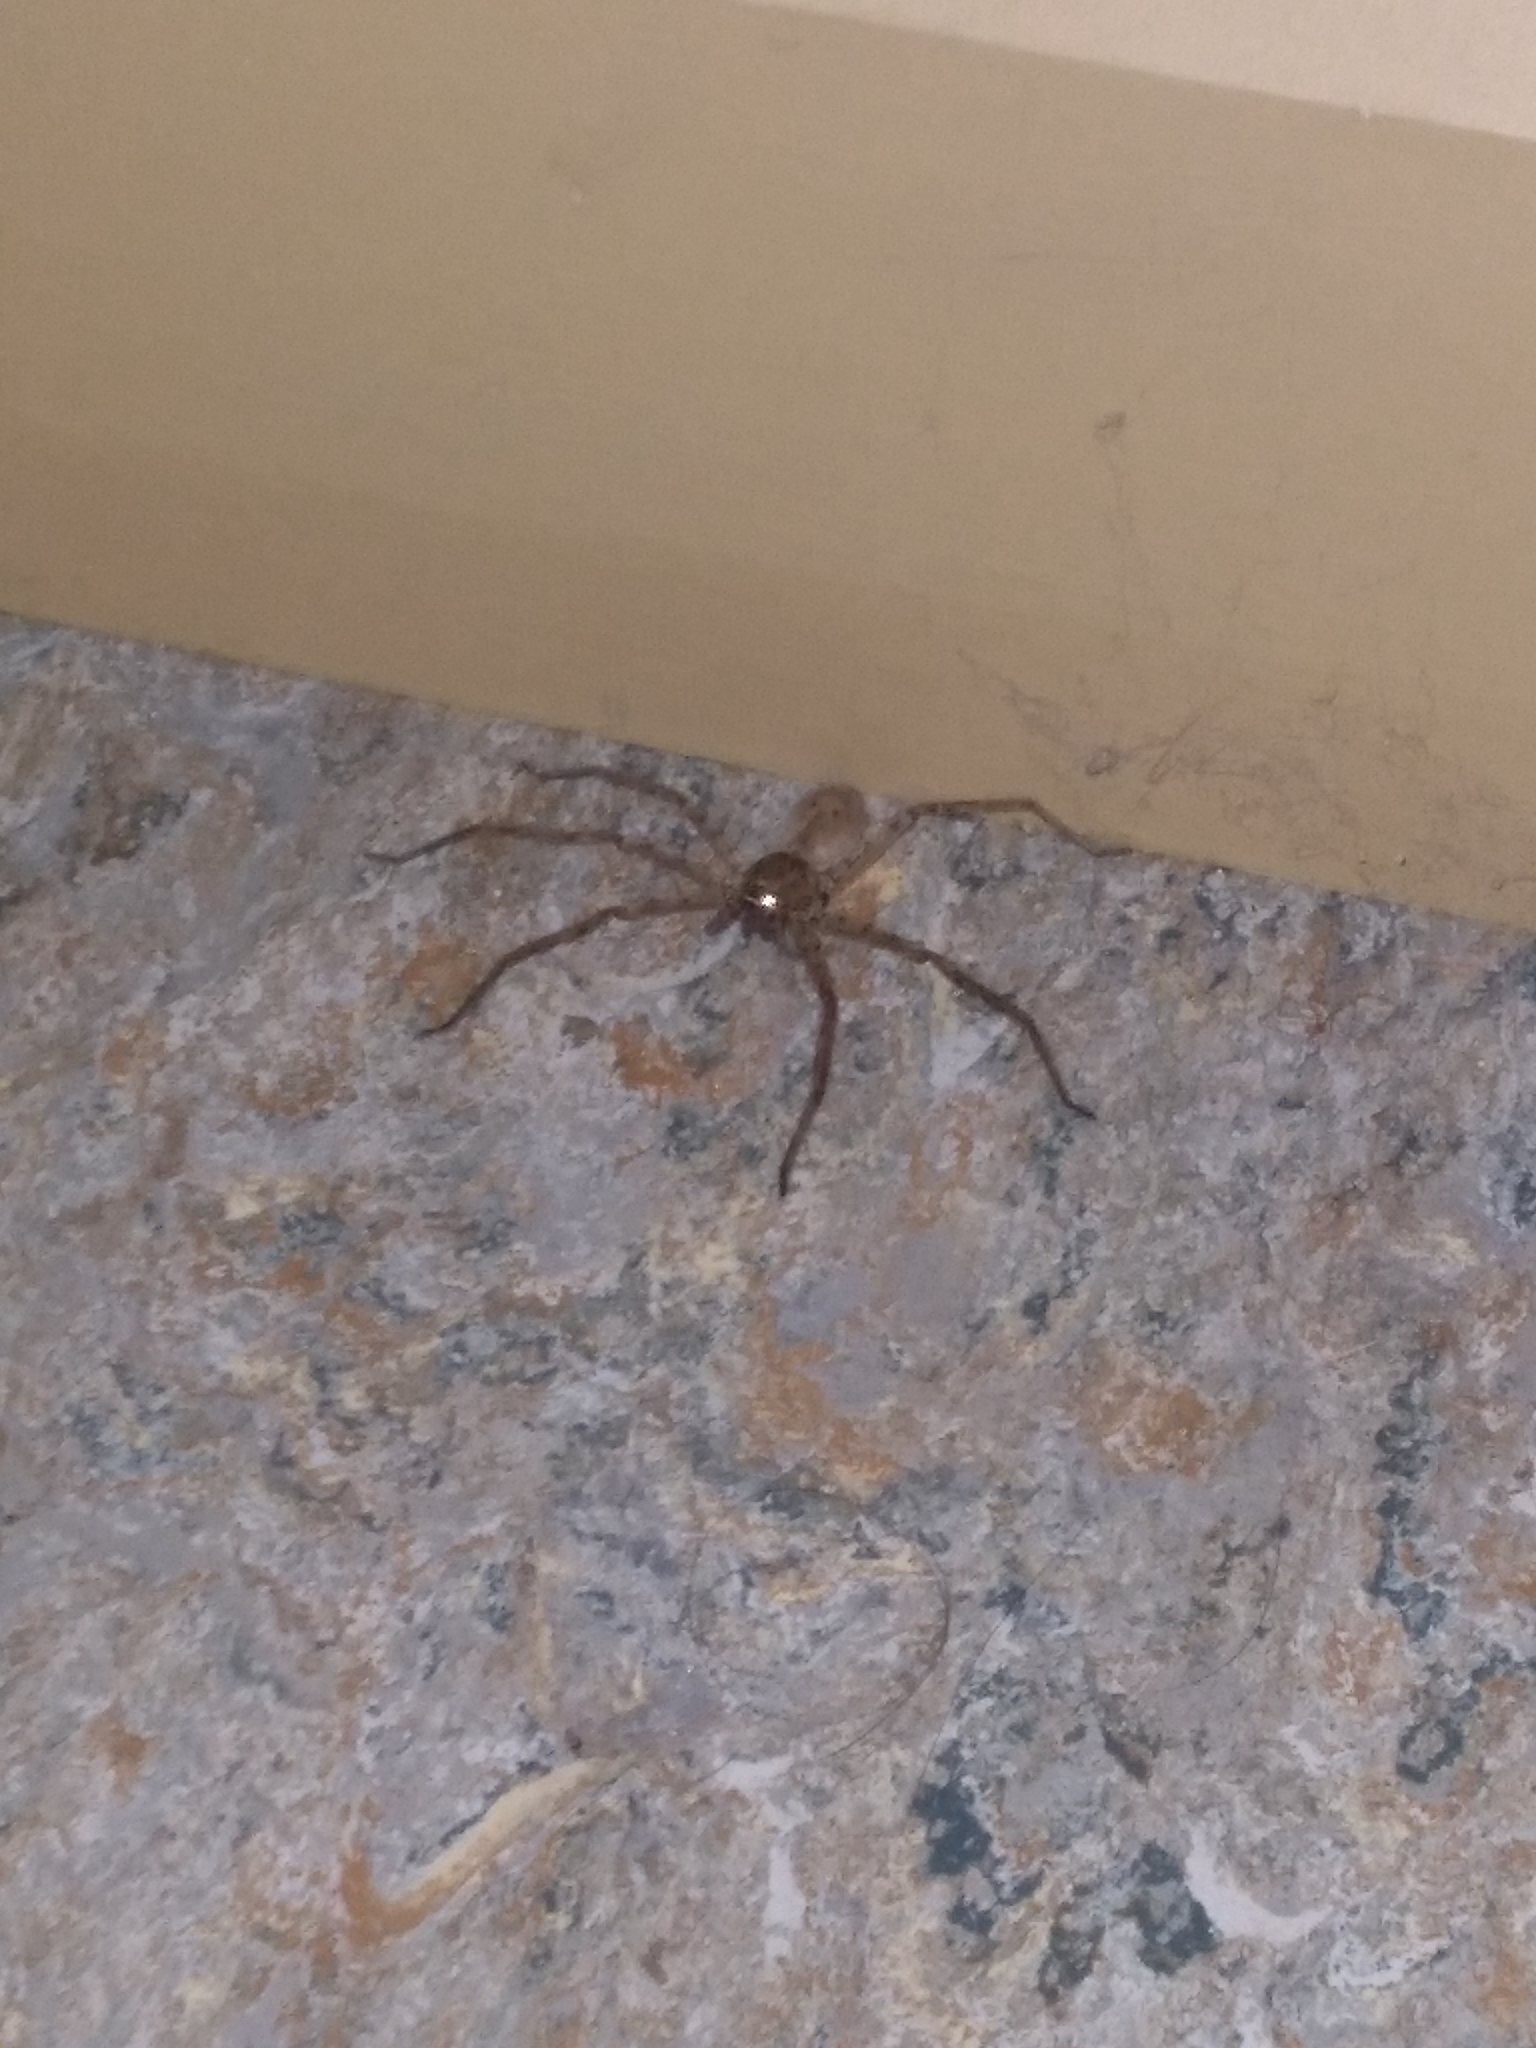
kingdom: Animalia
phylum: Arthropoda
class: Arachnida
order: Araneae
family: Sparassidae
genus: Heteropoda
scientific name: Heteropoda venatoria
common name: Huntsman spider
